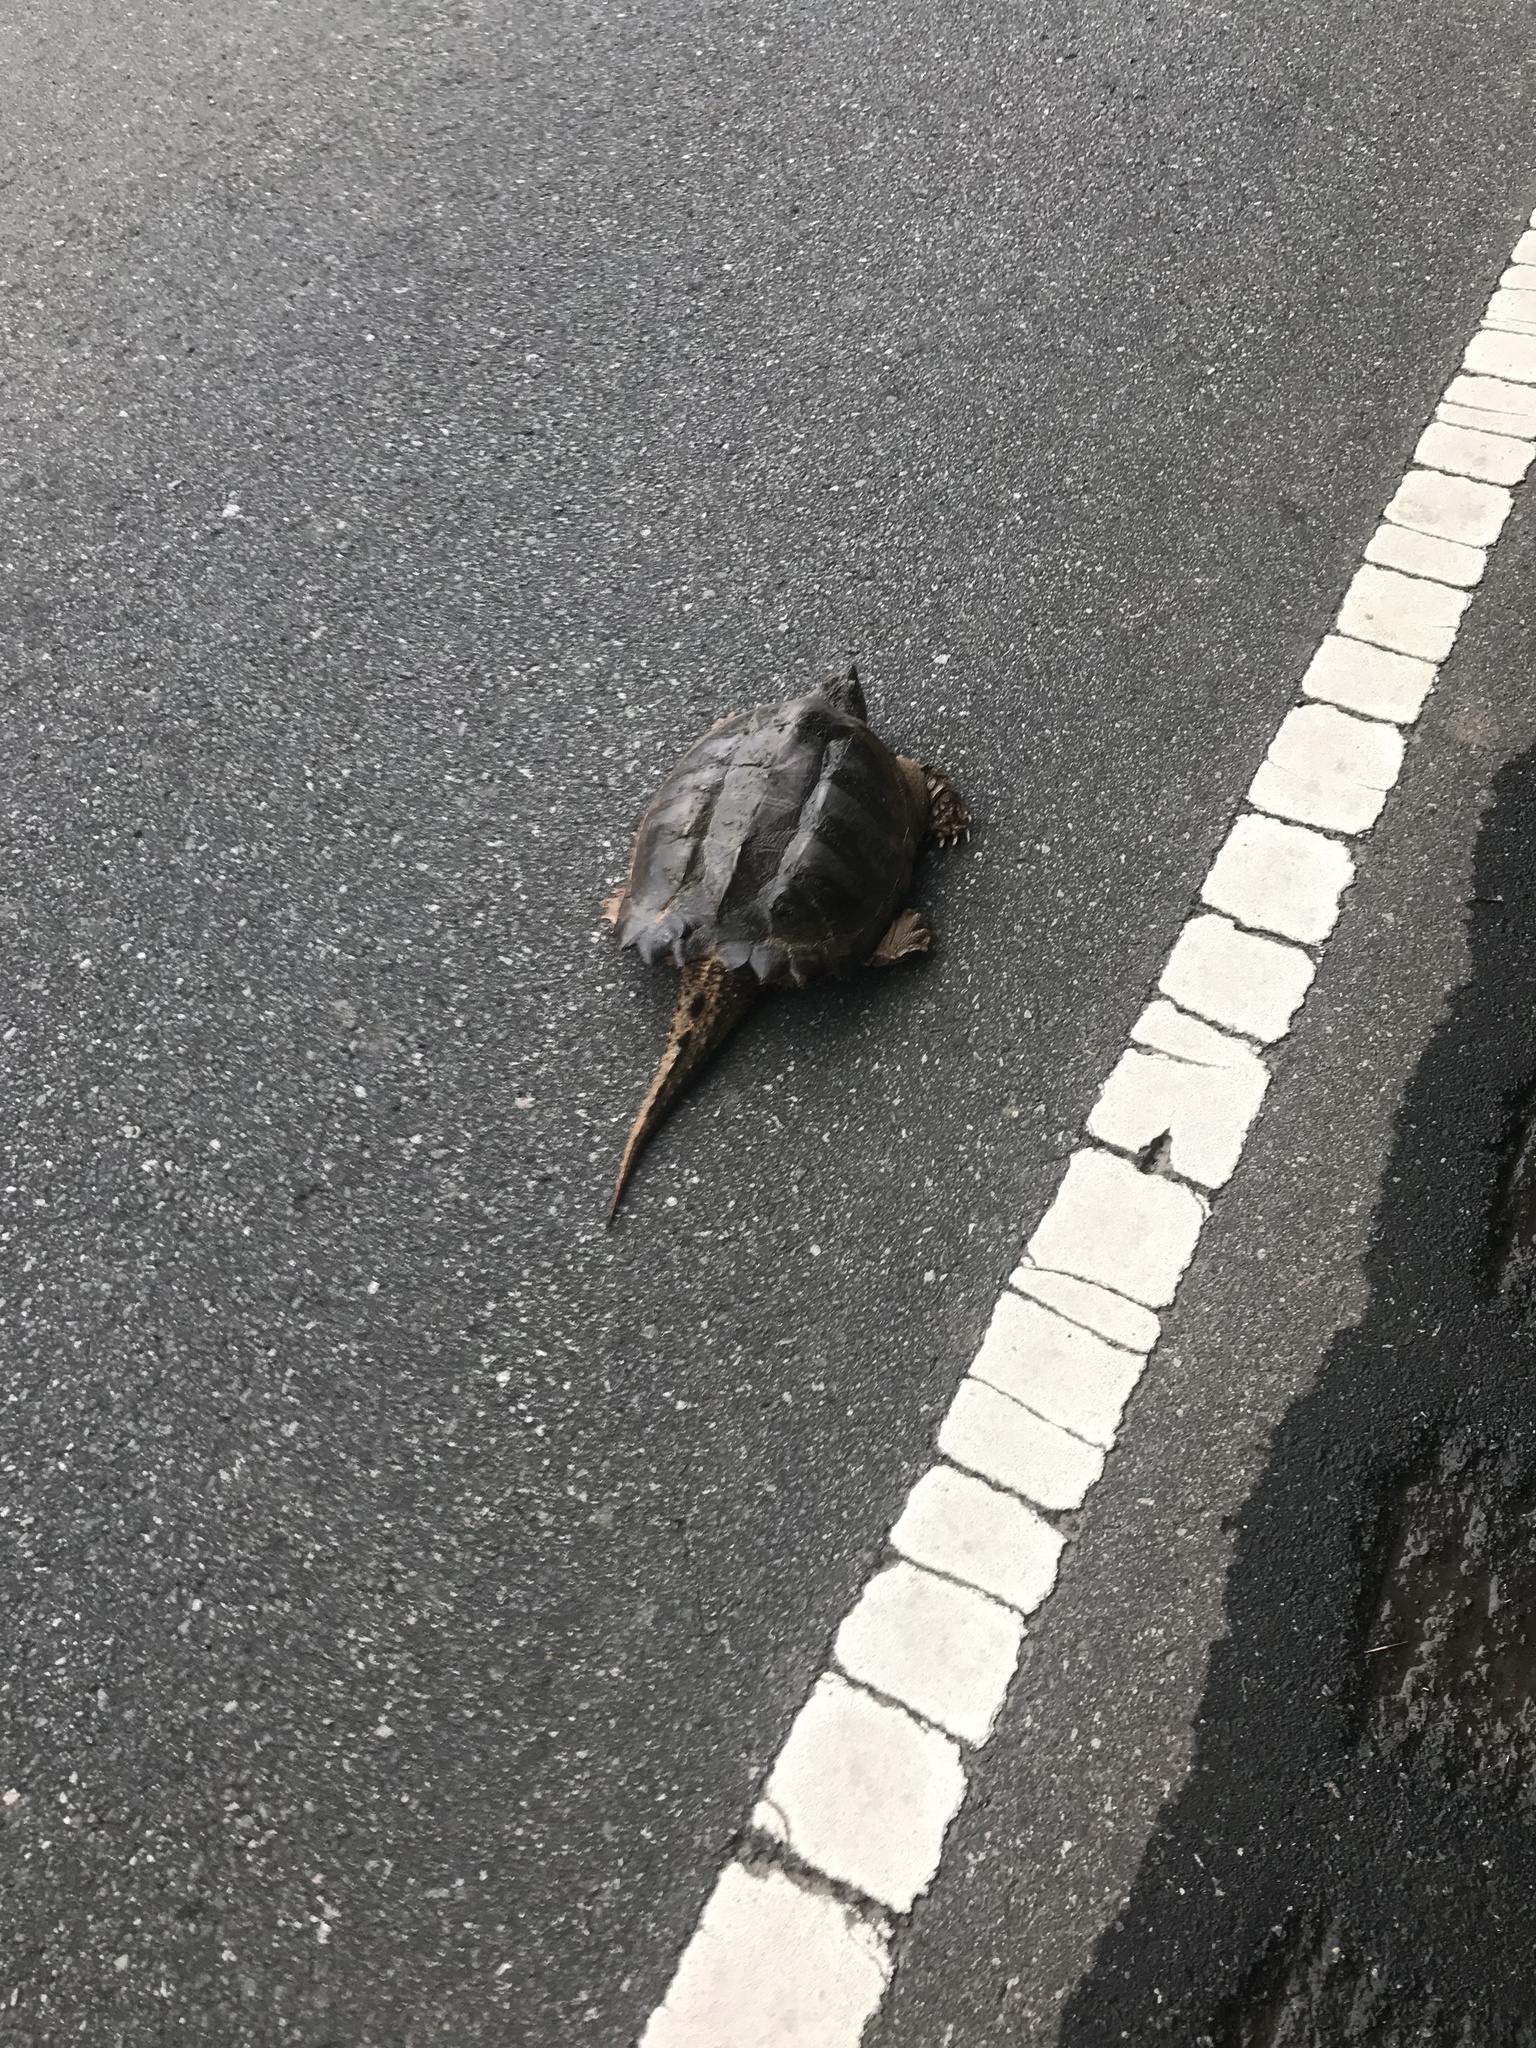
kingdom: Animalia
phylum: Chordata
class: Testudines
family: Chelydridae
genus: Chelydra
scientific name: Chelydra serpentina
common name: Common snapping turtle
